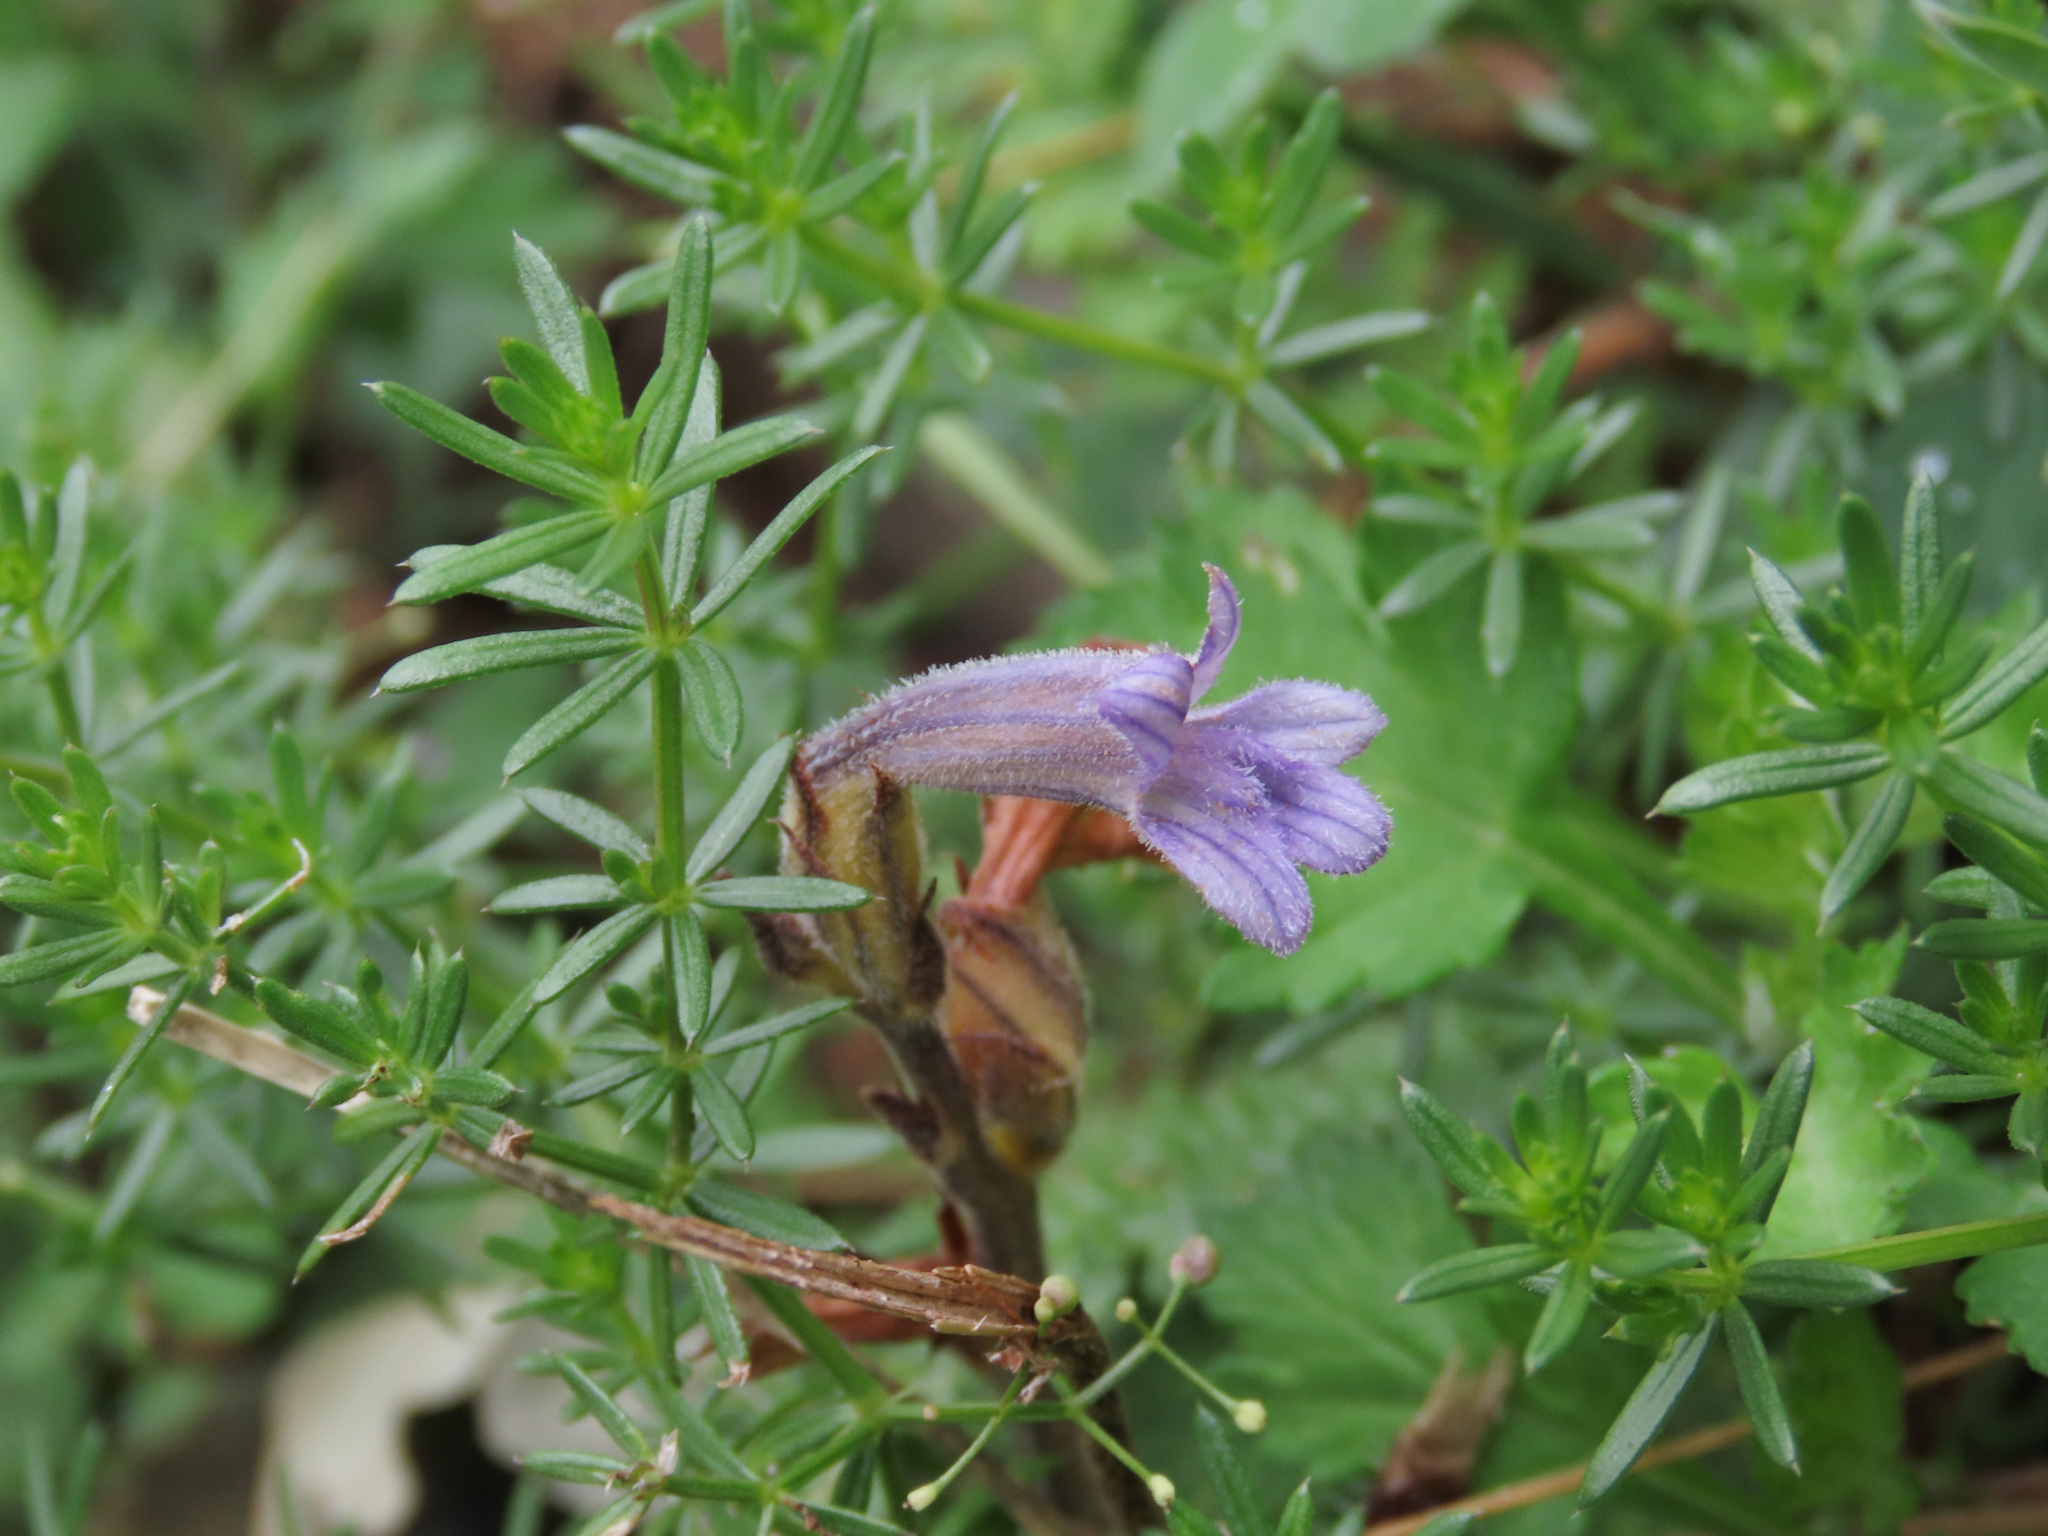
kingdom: Plantae
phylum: Tracheophyta
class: Magnoliopsida
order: Lamiales
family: Orobanchaceae
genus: Phelipanche
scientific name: Phelipanche purpurea
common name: Purple broomrape
